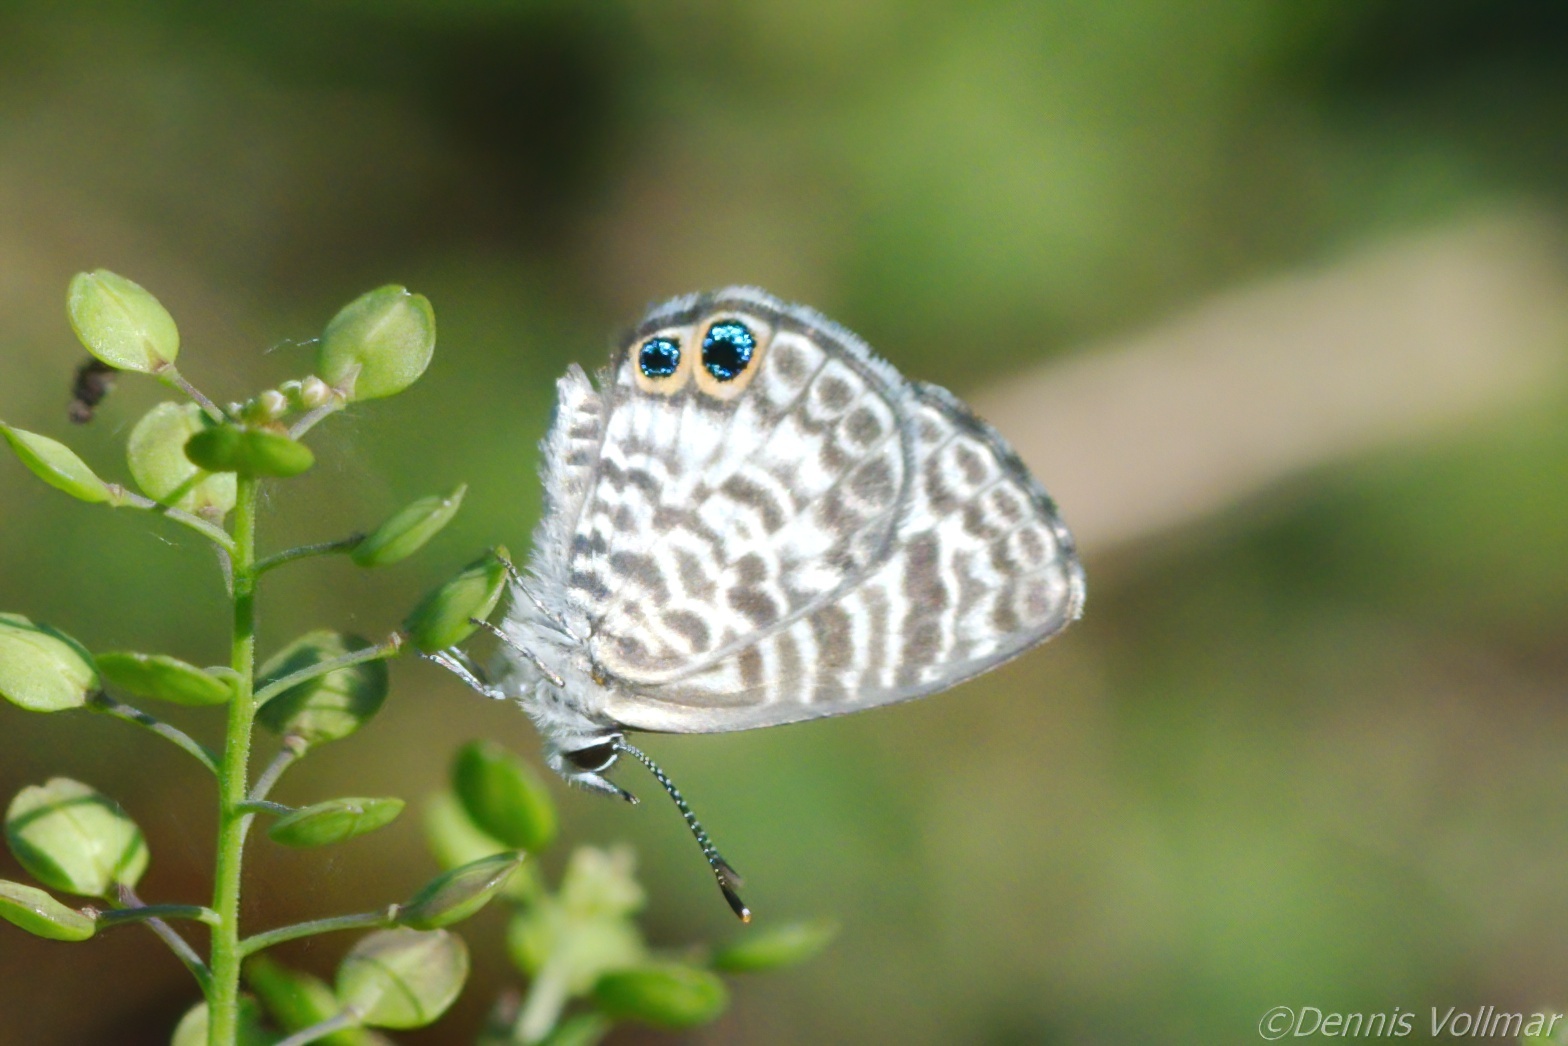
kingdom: Animalia
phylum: Arthropoda
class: Insecta
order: Lepidoptera
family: Lycaenidae
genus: Leptotes
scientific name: Leptotes cassius
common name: Cassius blue
